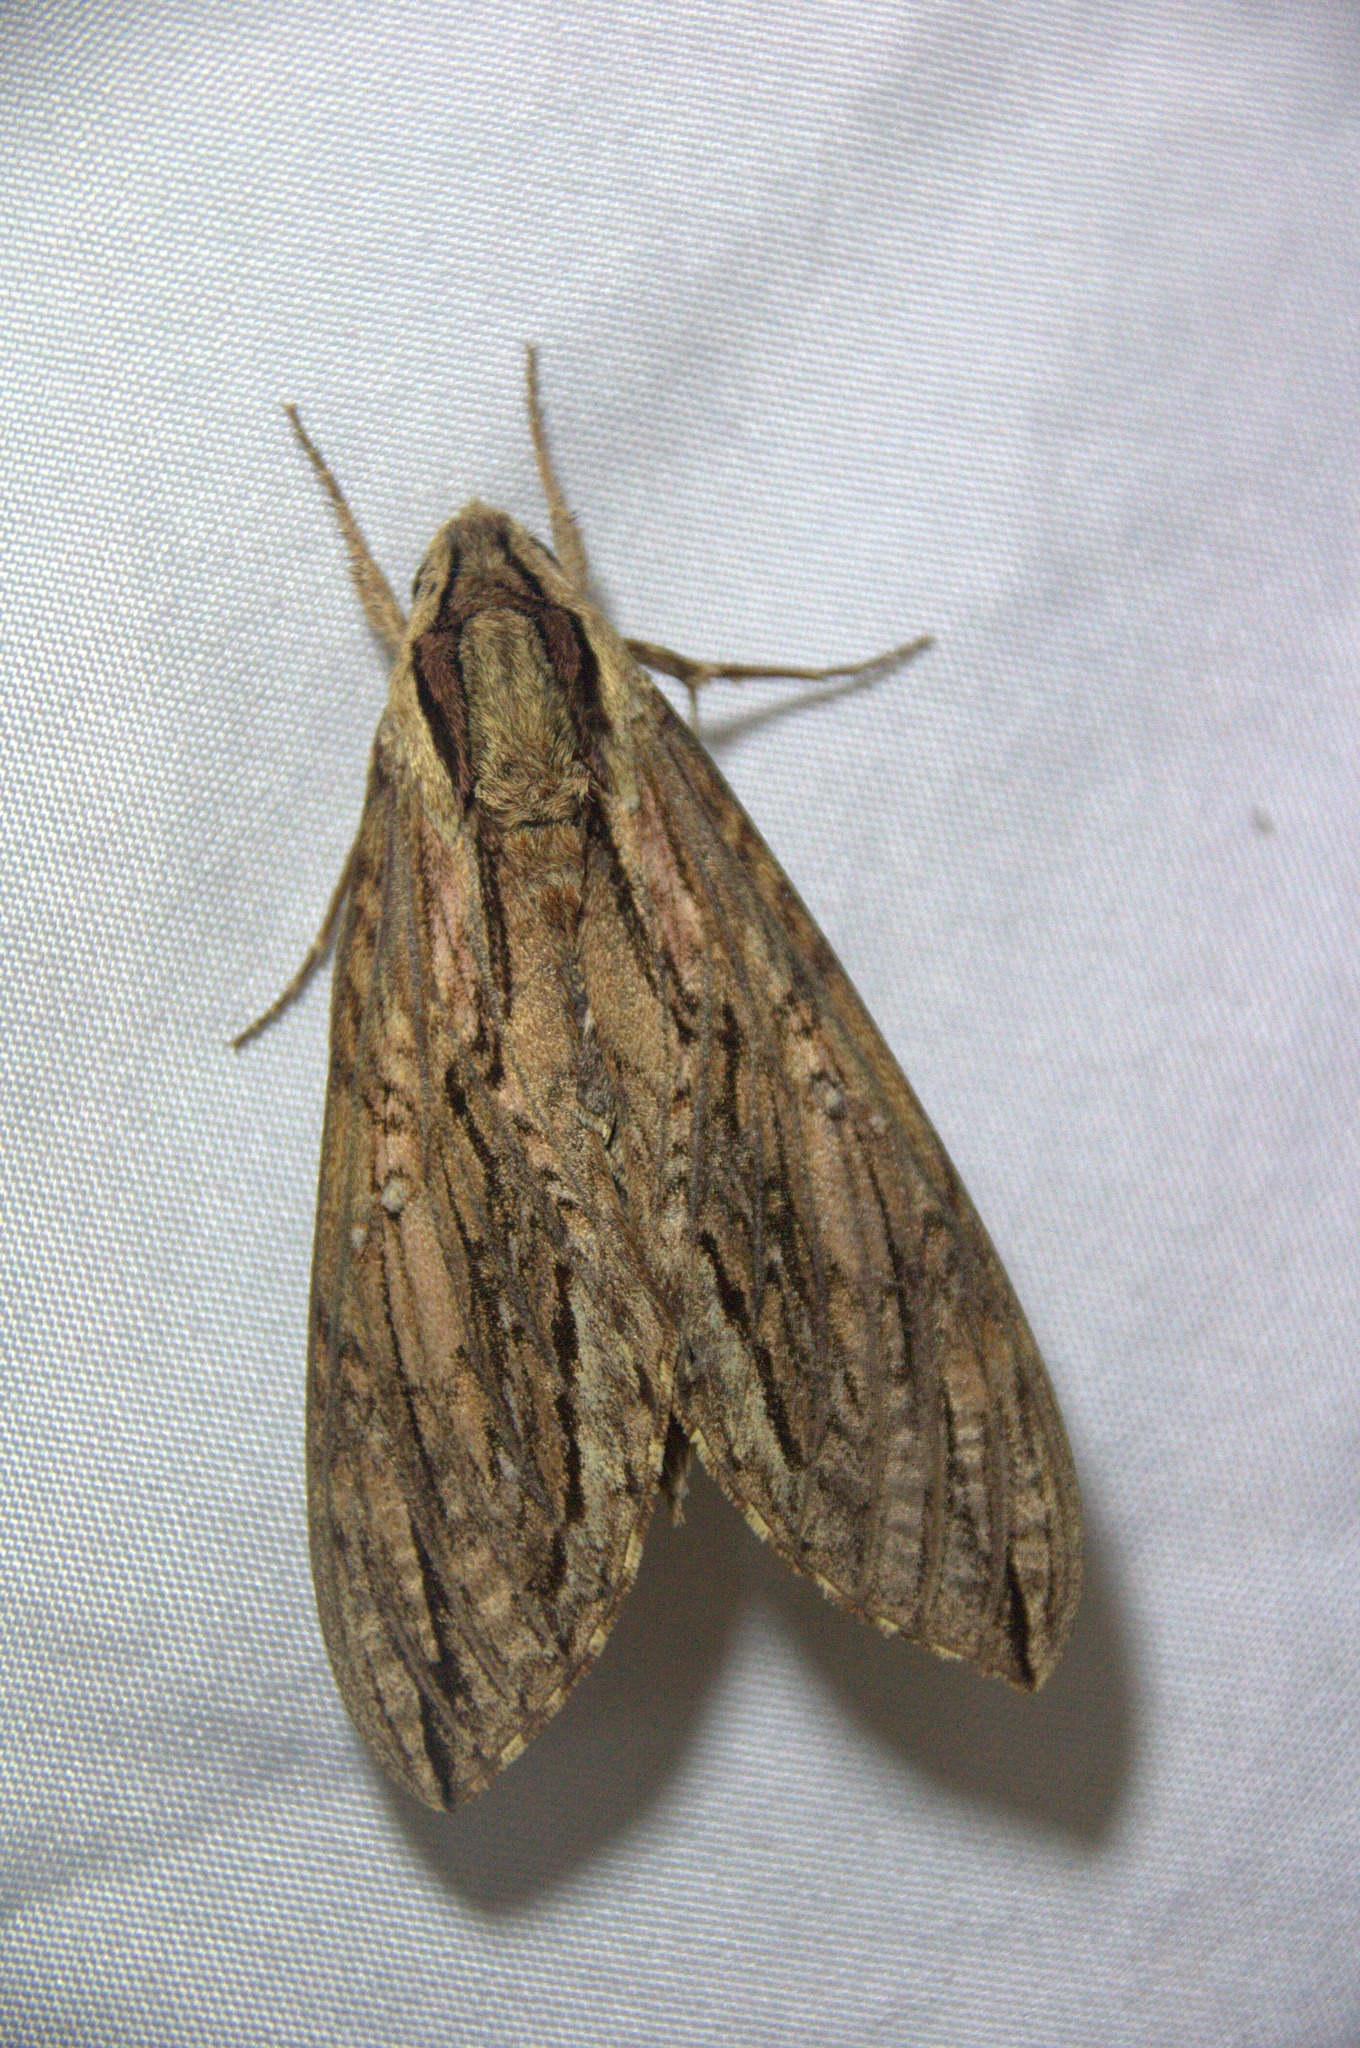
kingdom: Animalia
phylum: Arthropoda
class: Insecta
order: Lepidoptera
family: Sphingidae
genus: Lintneria
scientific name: Lintneria merops
